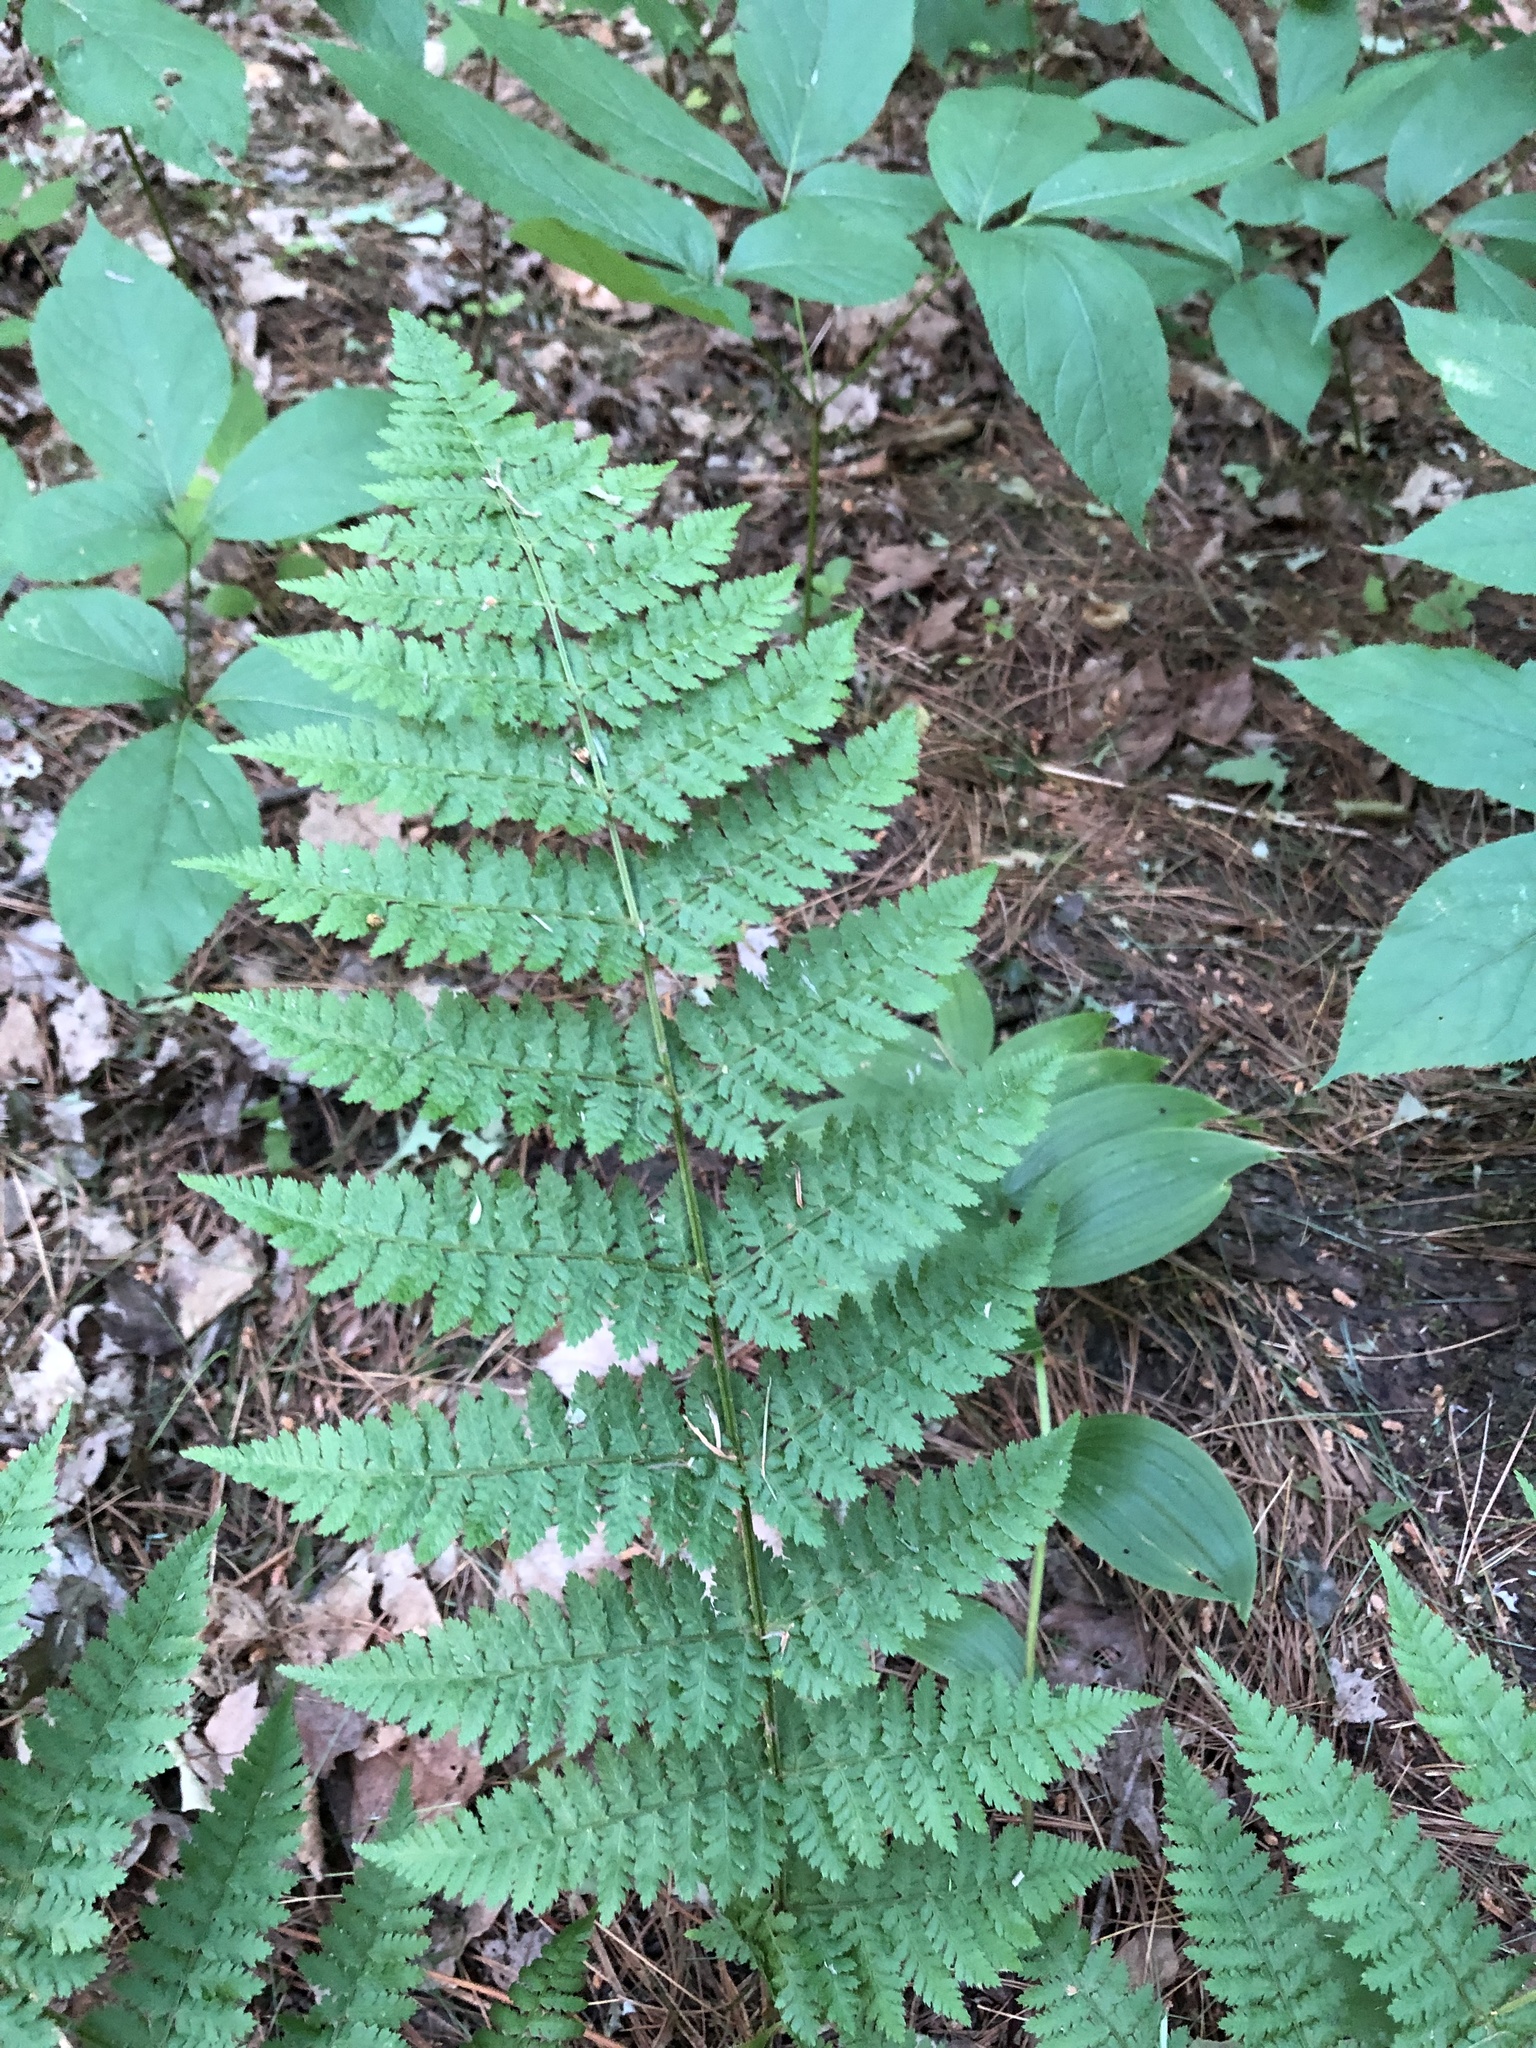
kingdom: Plantae
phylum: Tracheophyta
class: Polypodiopsida
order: Polypodiales
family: Dryopteridaceae
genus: Dryopteris
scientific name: Dryopteris intermedia
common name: Evergreen wood fern
